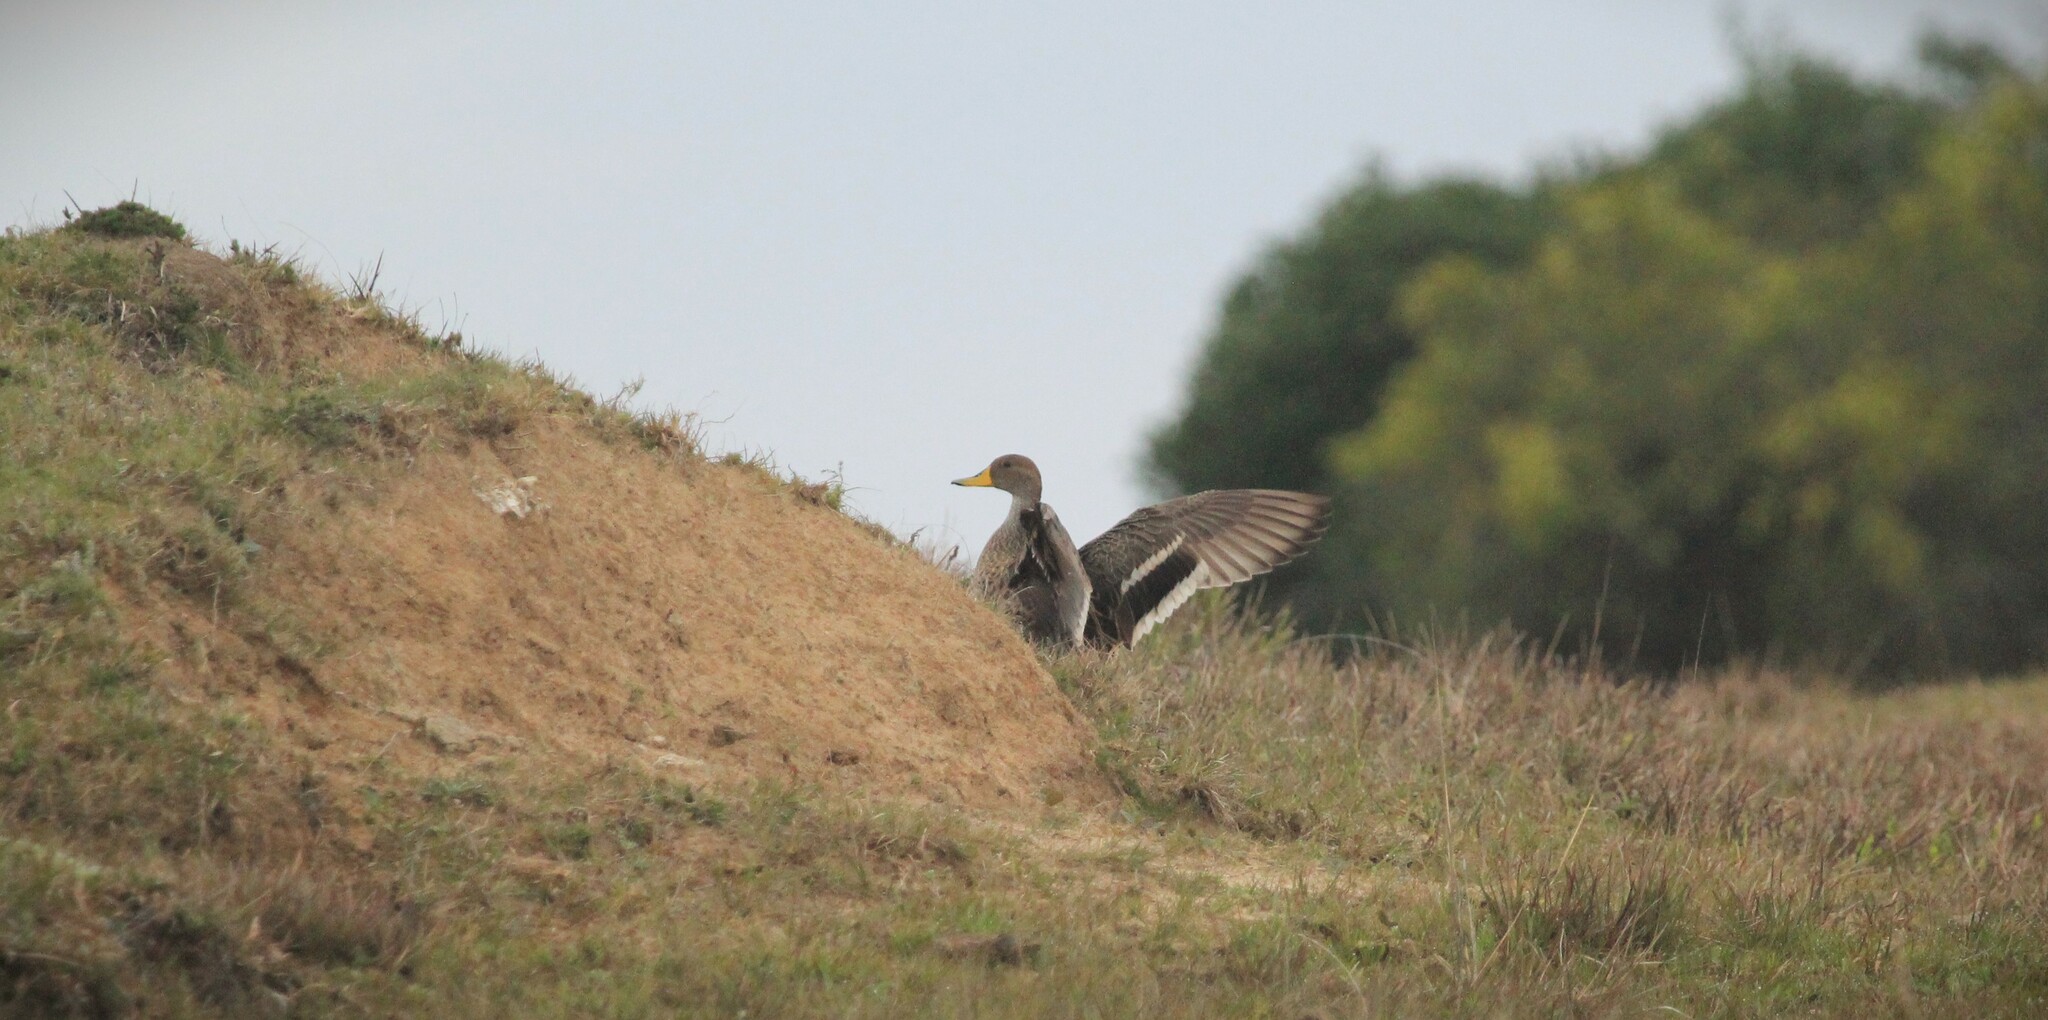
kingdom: Animalia
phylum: Chordata
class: Aves
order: Anseriformes
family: Anatidae
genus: Anas
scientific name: Anas georgica
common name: Yellow-billed pintail
